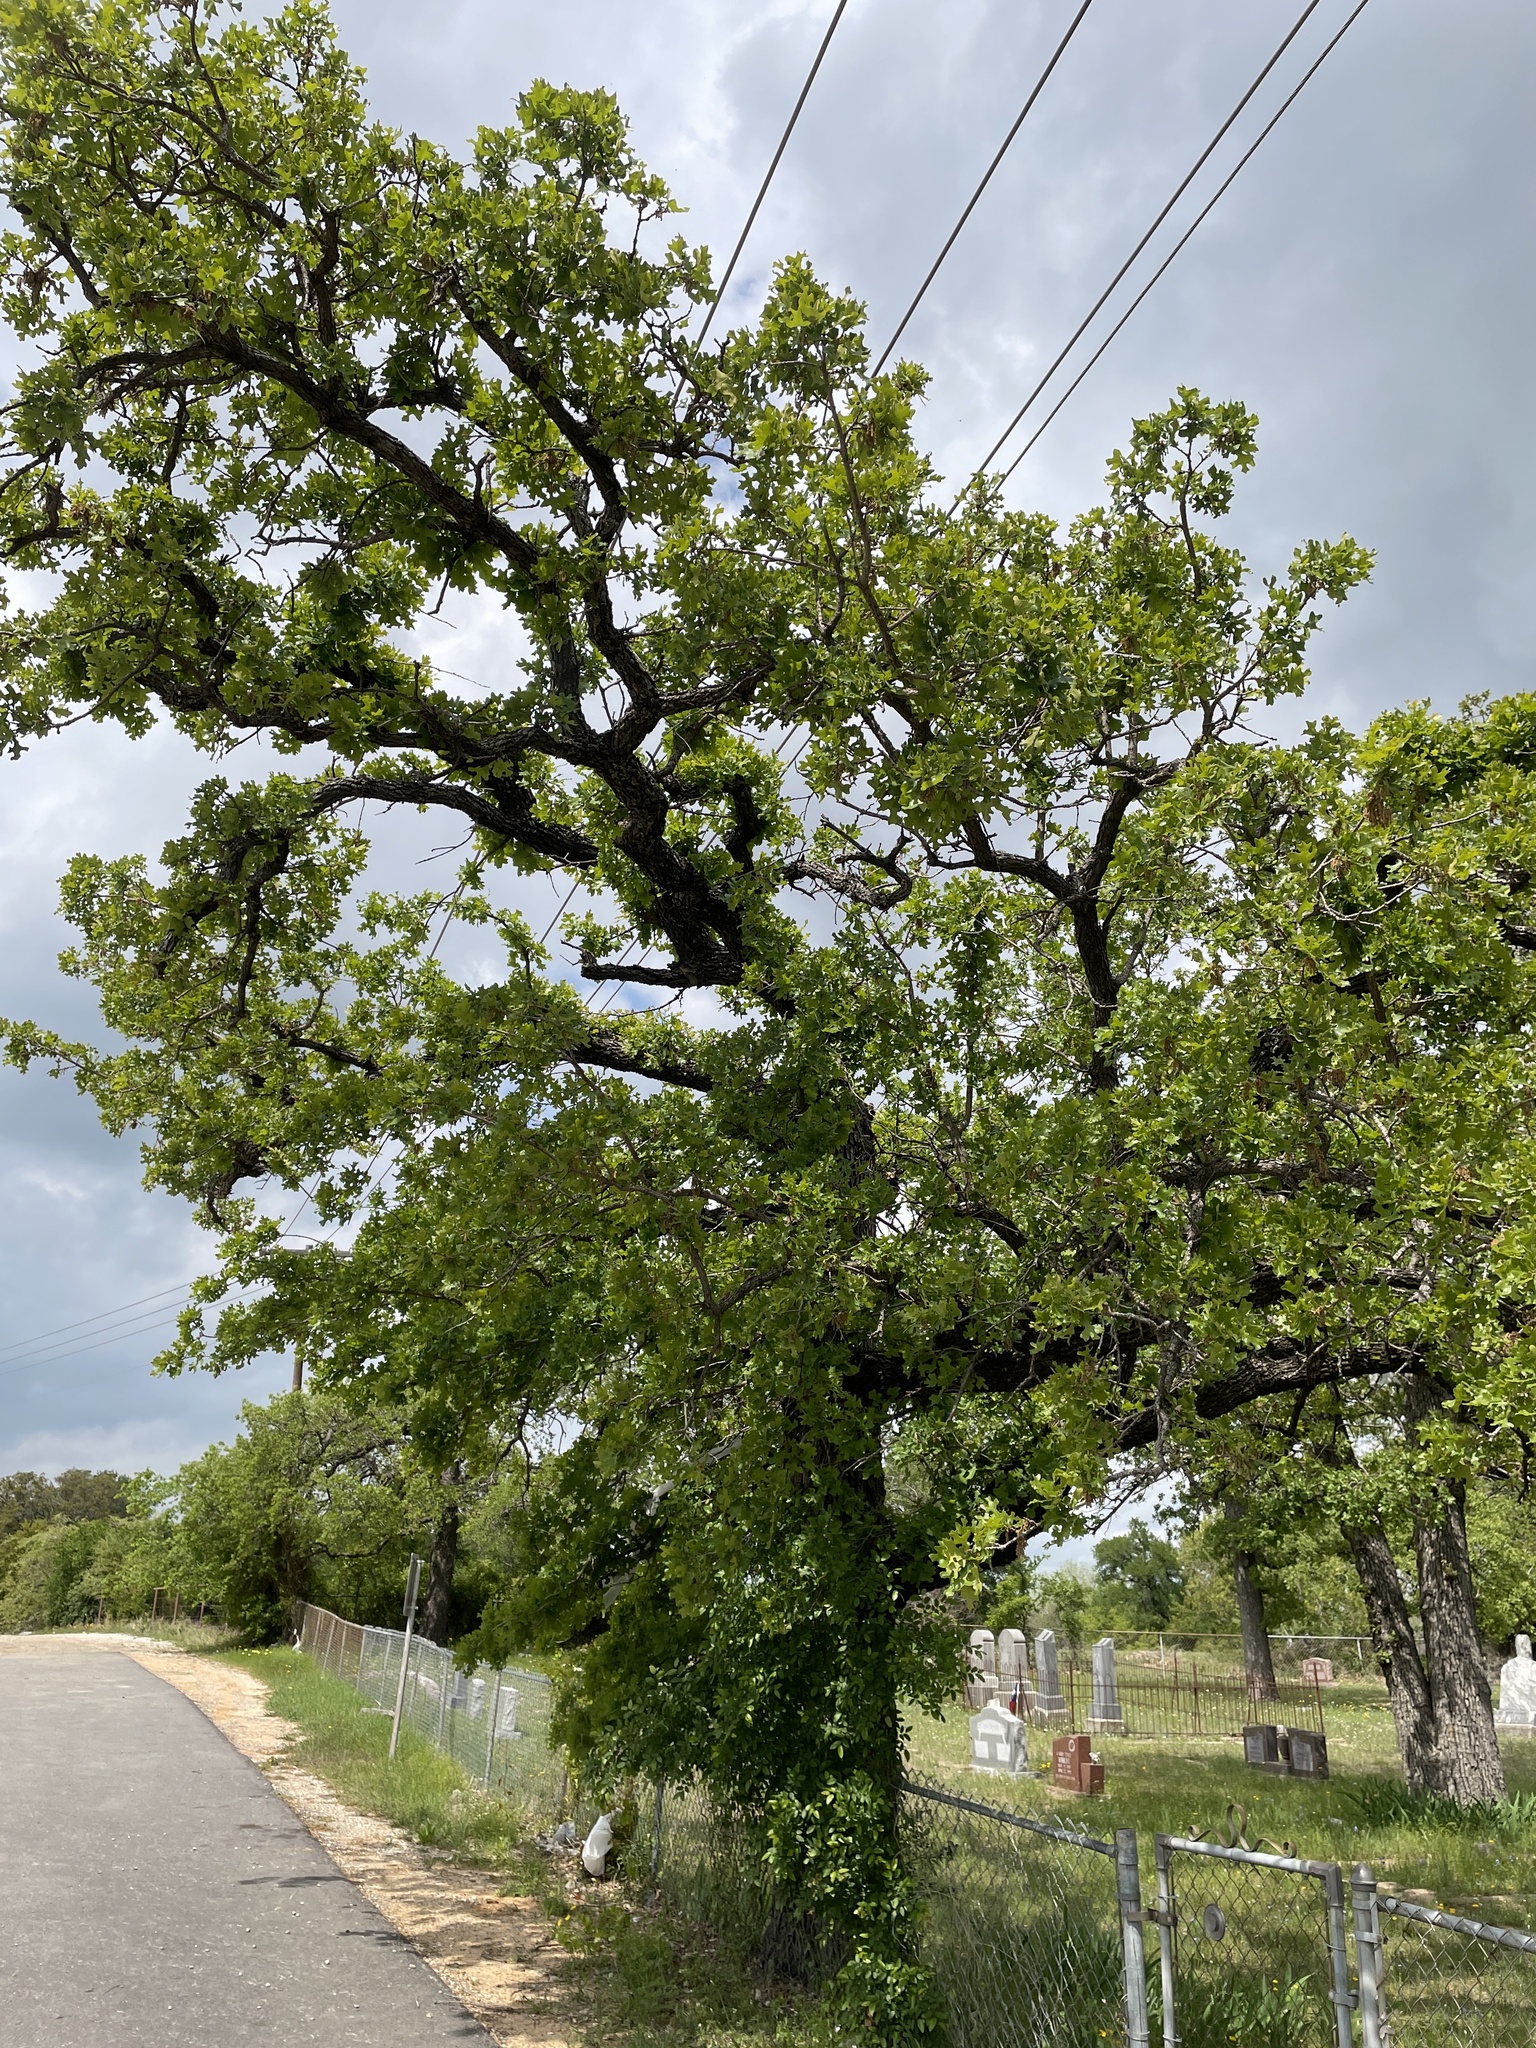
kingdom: Plantae
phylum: Tracheophyta
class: Magnoliopsida
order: Fagales
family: Fagaceae
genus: Quercus
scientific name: Quercus stellata
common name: Post oak
